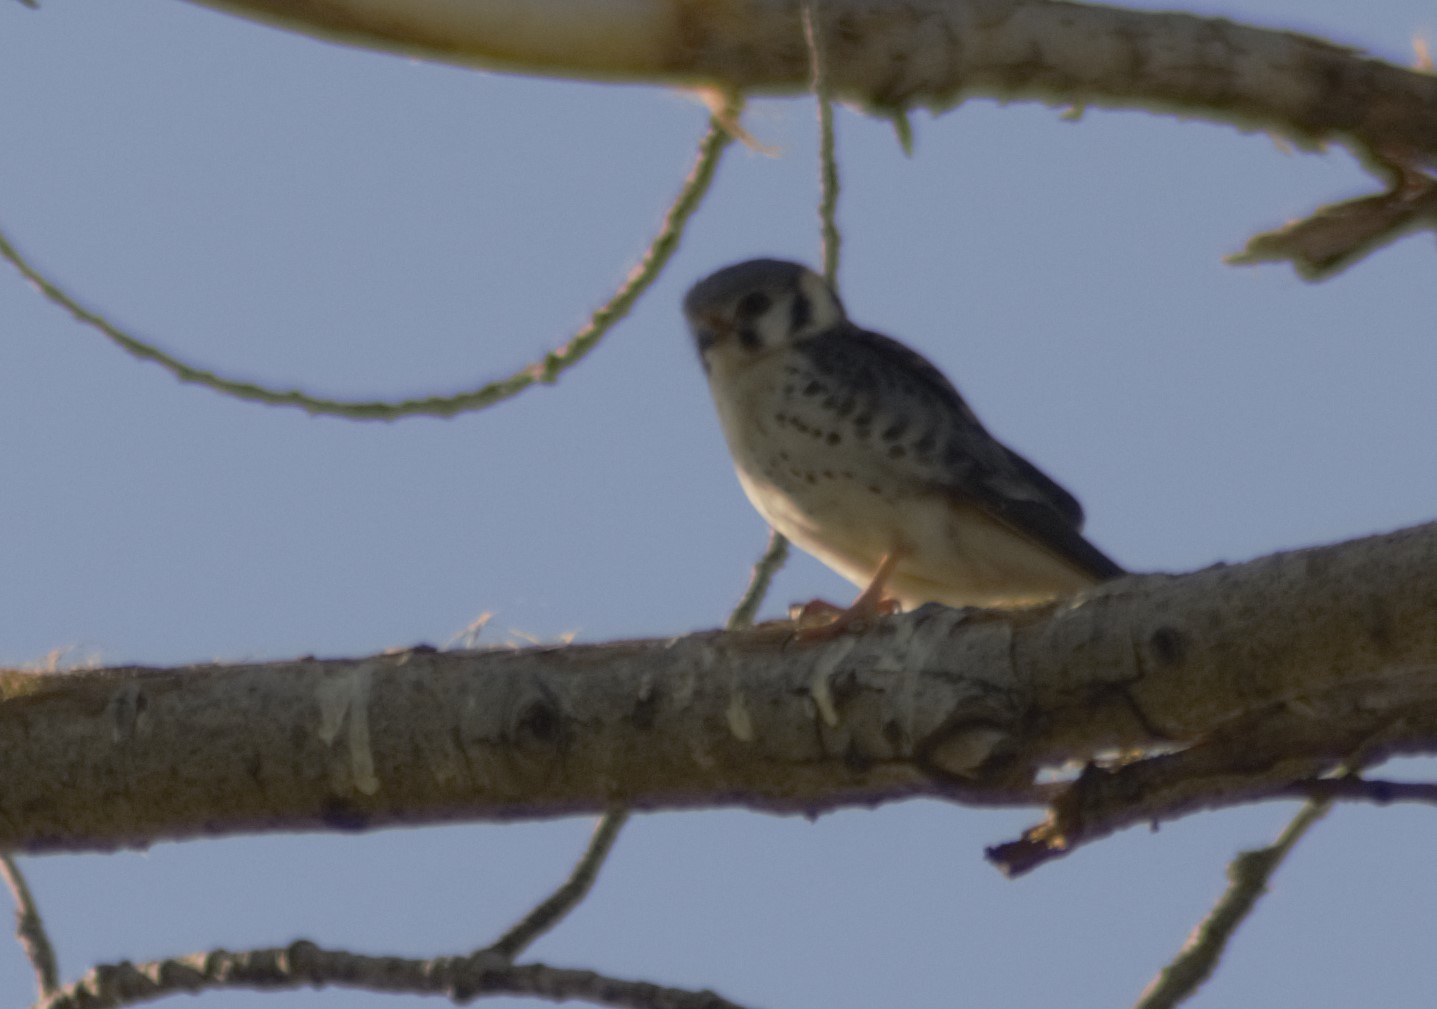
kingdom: Animalia
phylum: Chordata
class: Aves
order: Falconiformes
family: Falconidae
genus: Falco
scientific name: Falco sparverius
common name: American kestrel
